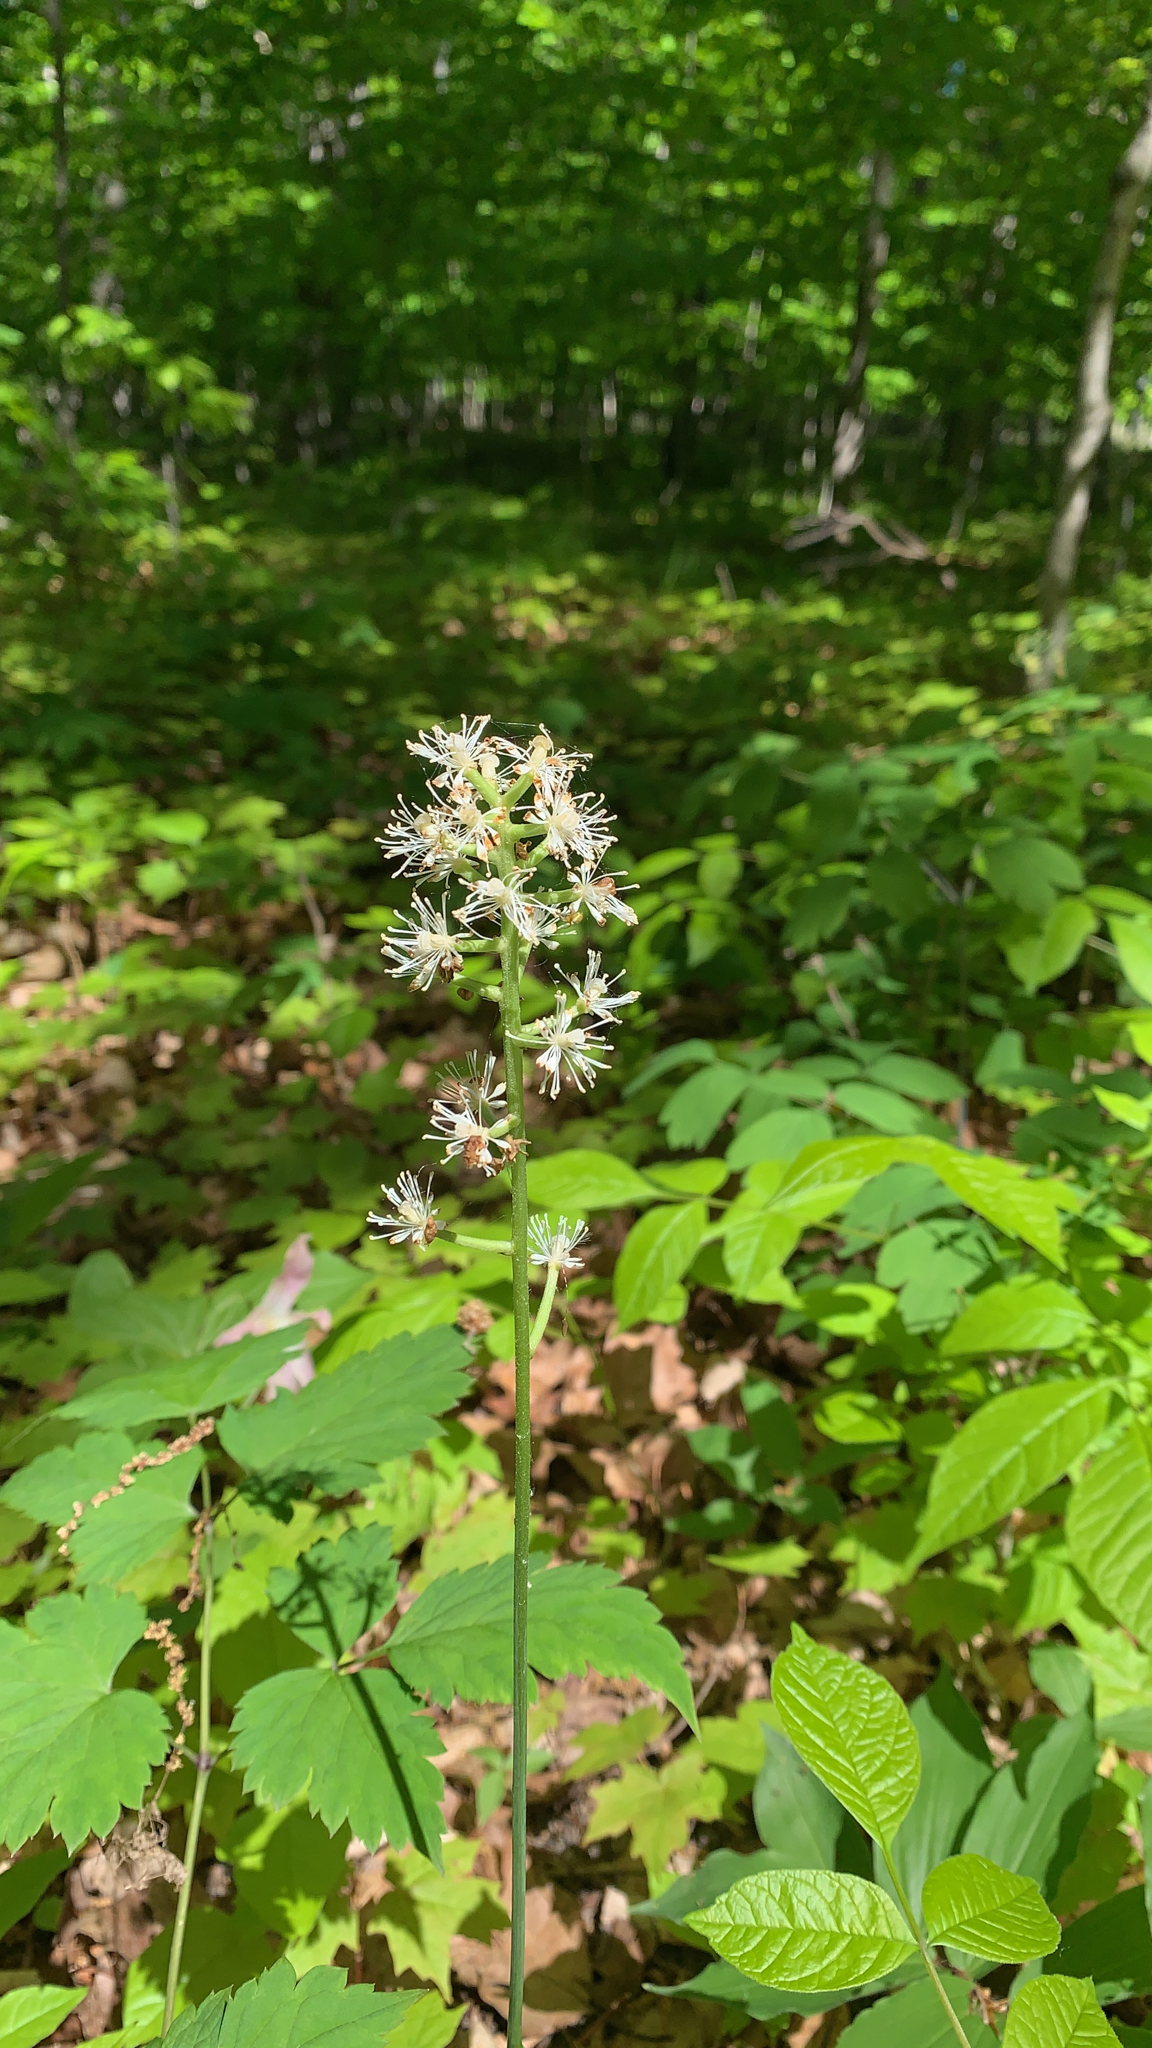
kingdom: Plantae
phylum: Tracheophyta
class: Magnoliopsida
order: Saxifragales
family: Saxifragaceae
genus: Tiarella
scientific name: Tiarella stolonifera
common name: Stoloniferous foamflower
